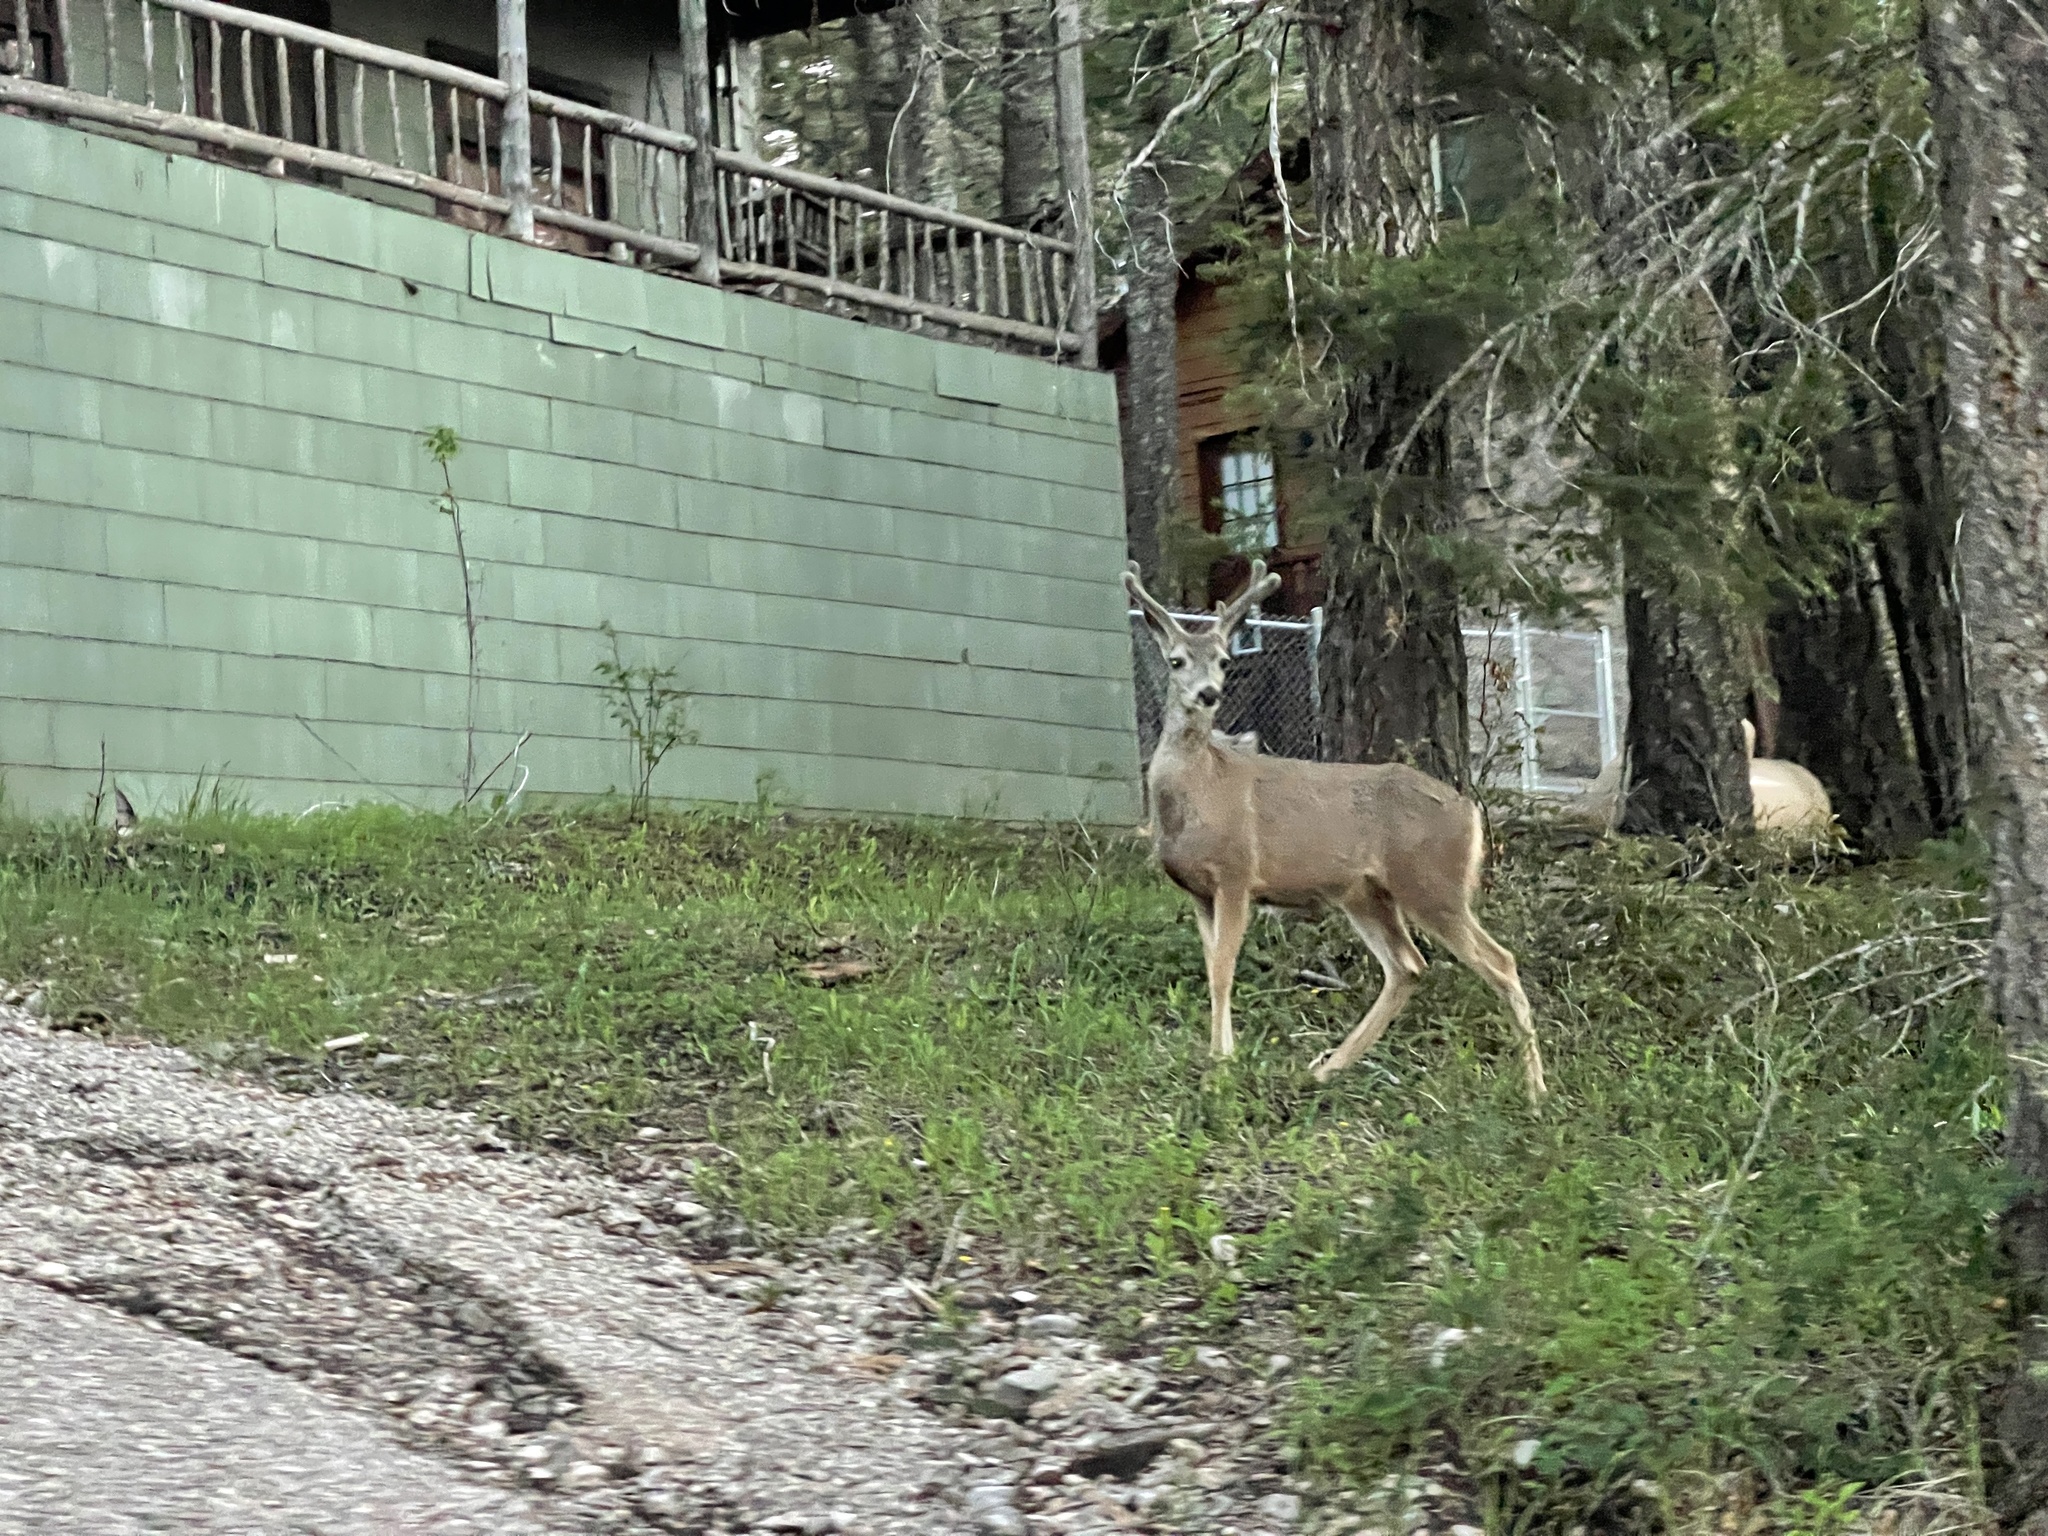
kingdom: Animalia
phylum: Chordata
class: Mammalia
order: Artiodactyla
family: Cervidae
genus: Odocoileus
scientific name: Odocoileus hemionus
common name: Mule deer
